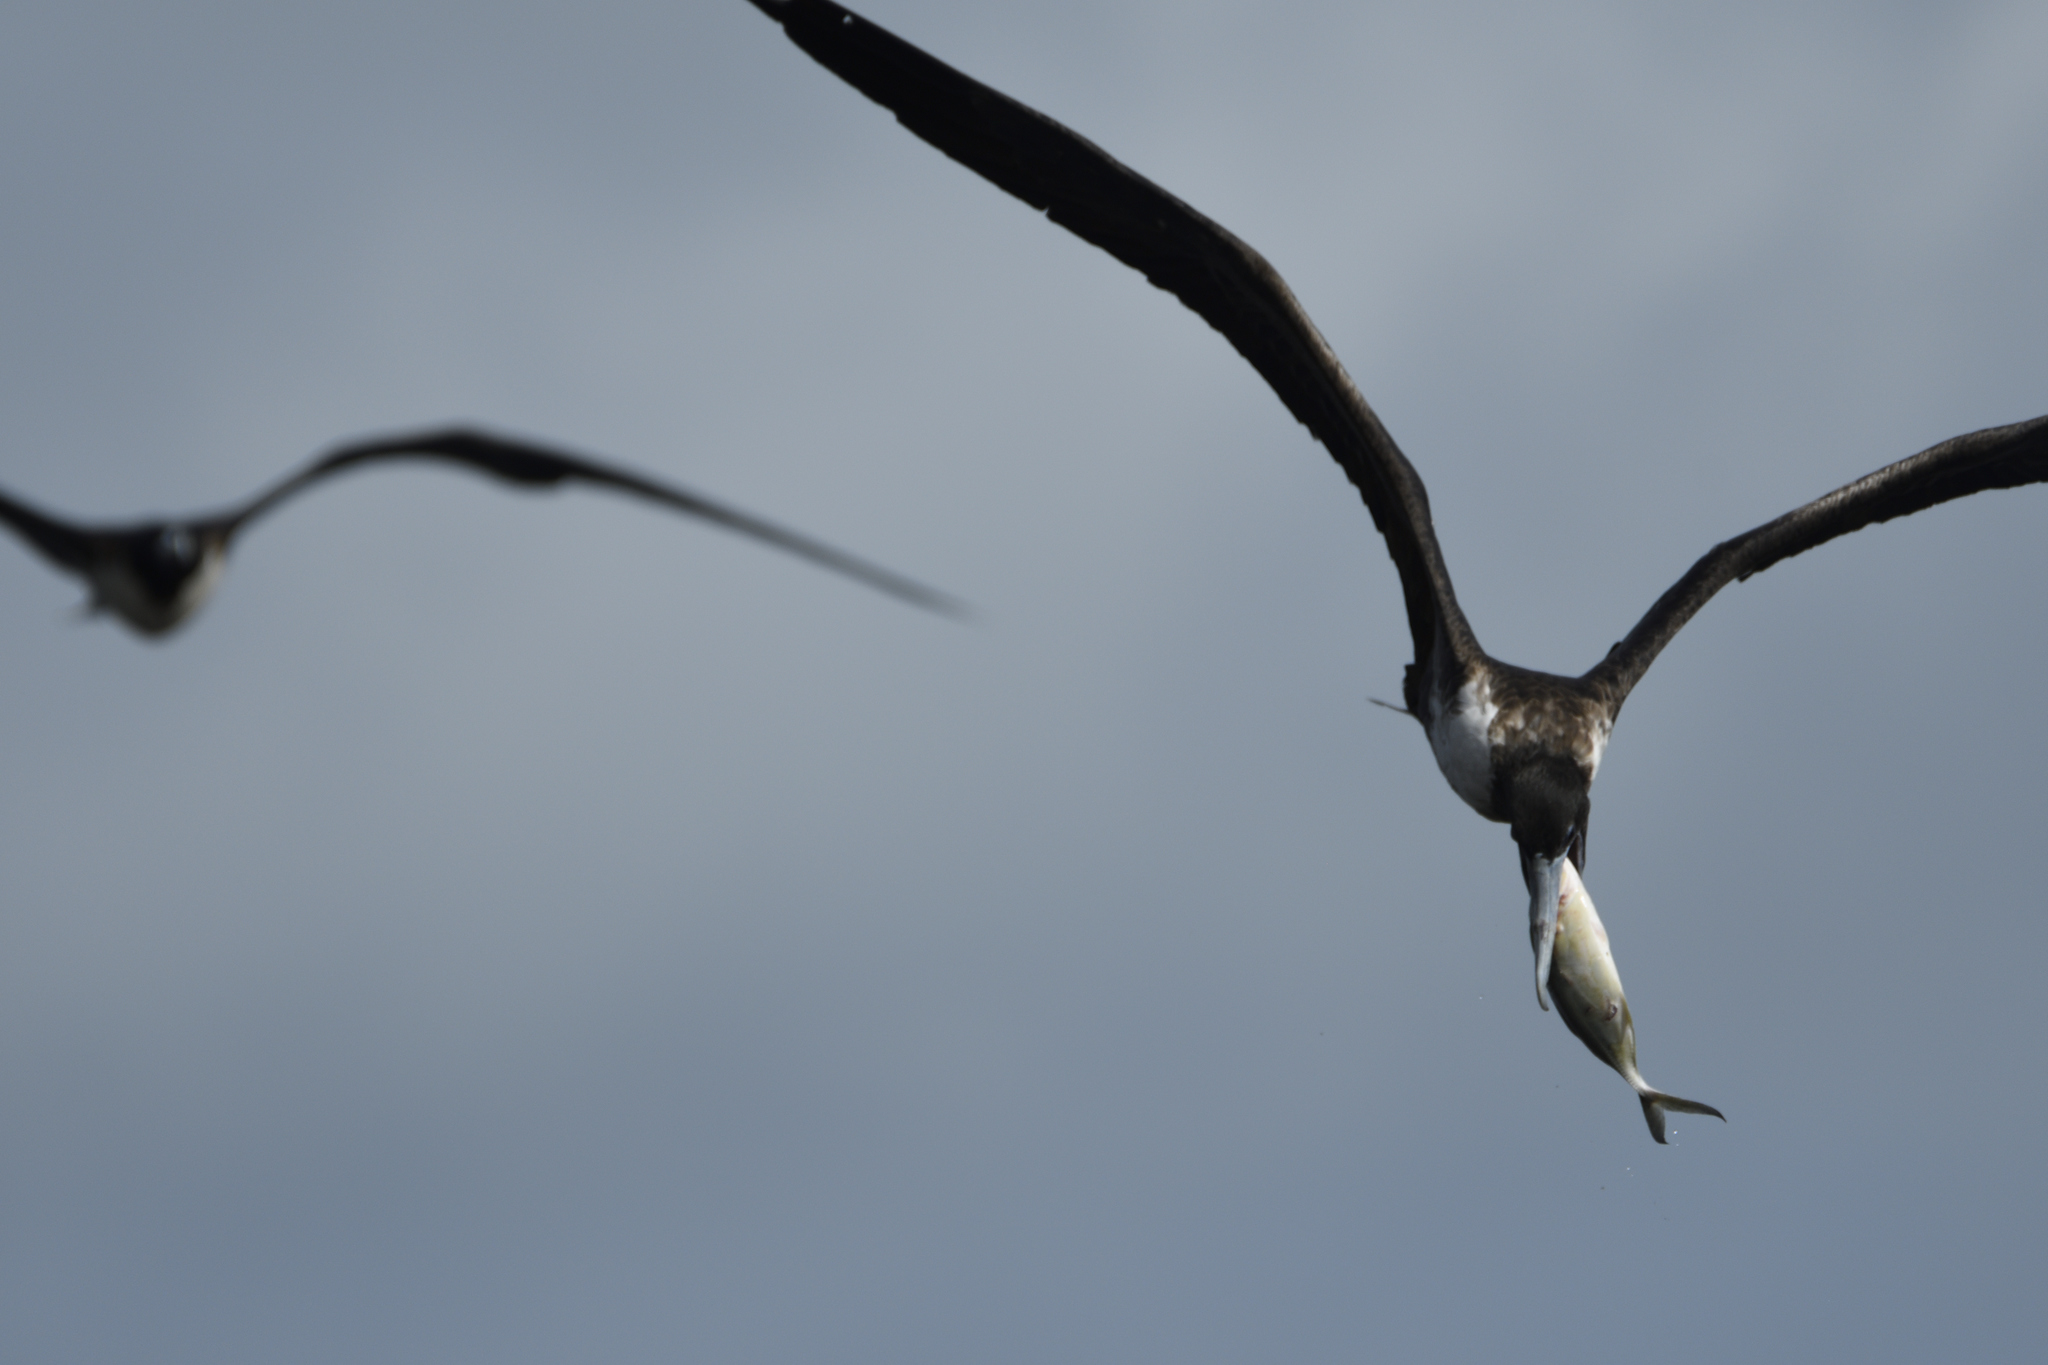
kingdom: Animalia
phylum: Chordata
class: Aves
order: Suliformes
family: Fregatidae
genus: Fregata
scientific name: Fregata magnificens
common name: Magnificent frigatebird
